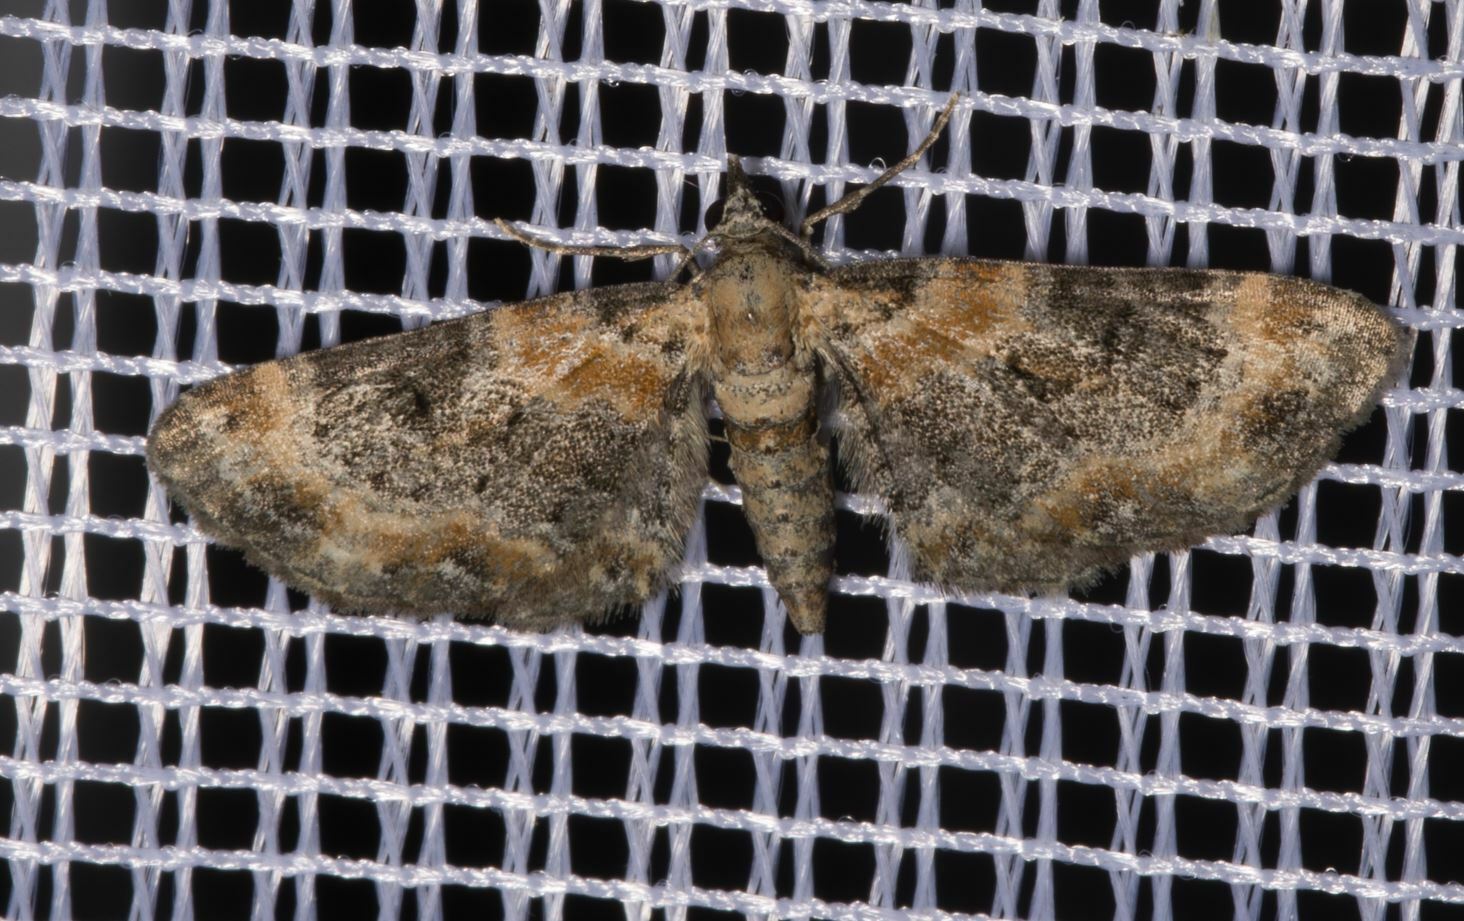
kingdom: Animalia
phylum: Arthropoda
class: Insecta
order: Lepidoptera
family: Geometridae
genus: Eupithecia
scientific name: Eupithecia linariata
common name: Toadflax pug
